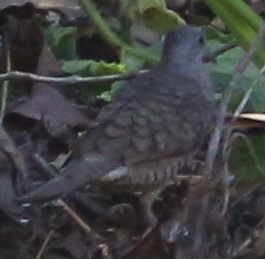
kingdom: Animalia
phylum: Chordata
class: Aves
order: Columbiformes
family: Columbidae
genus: Columbina
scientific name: Columbina inca
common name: Inca dove
